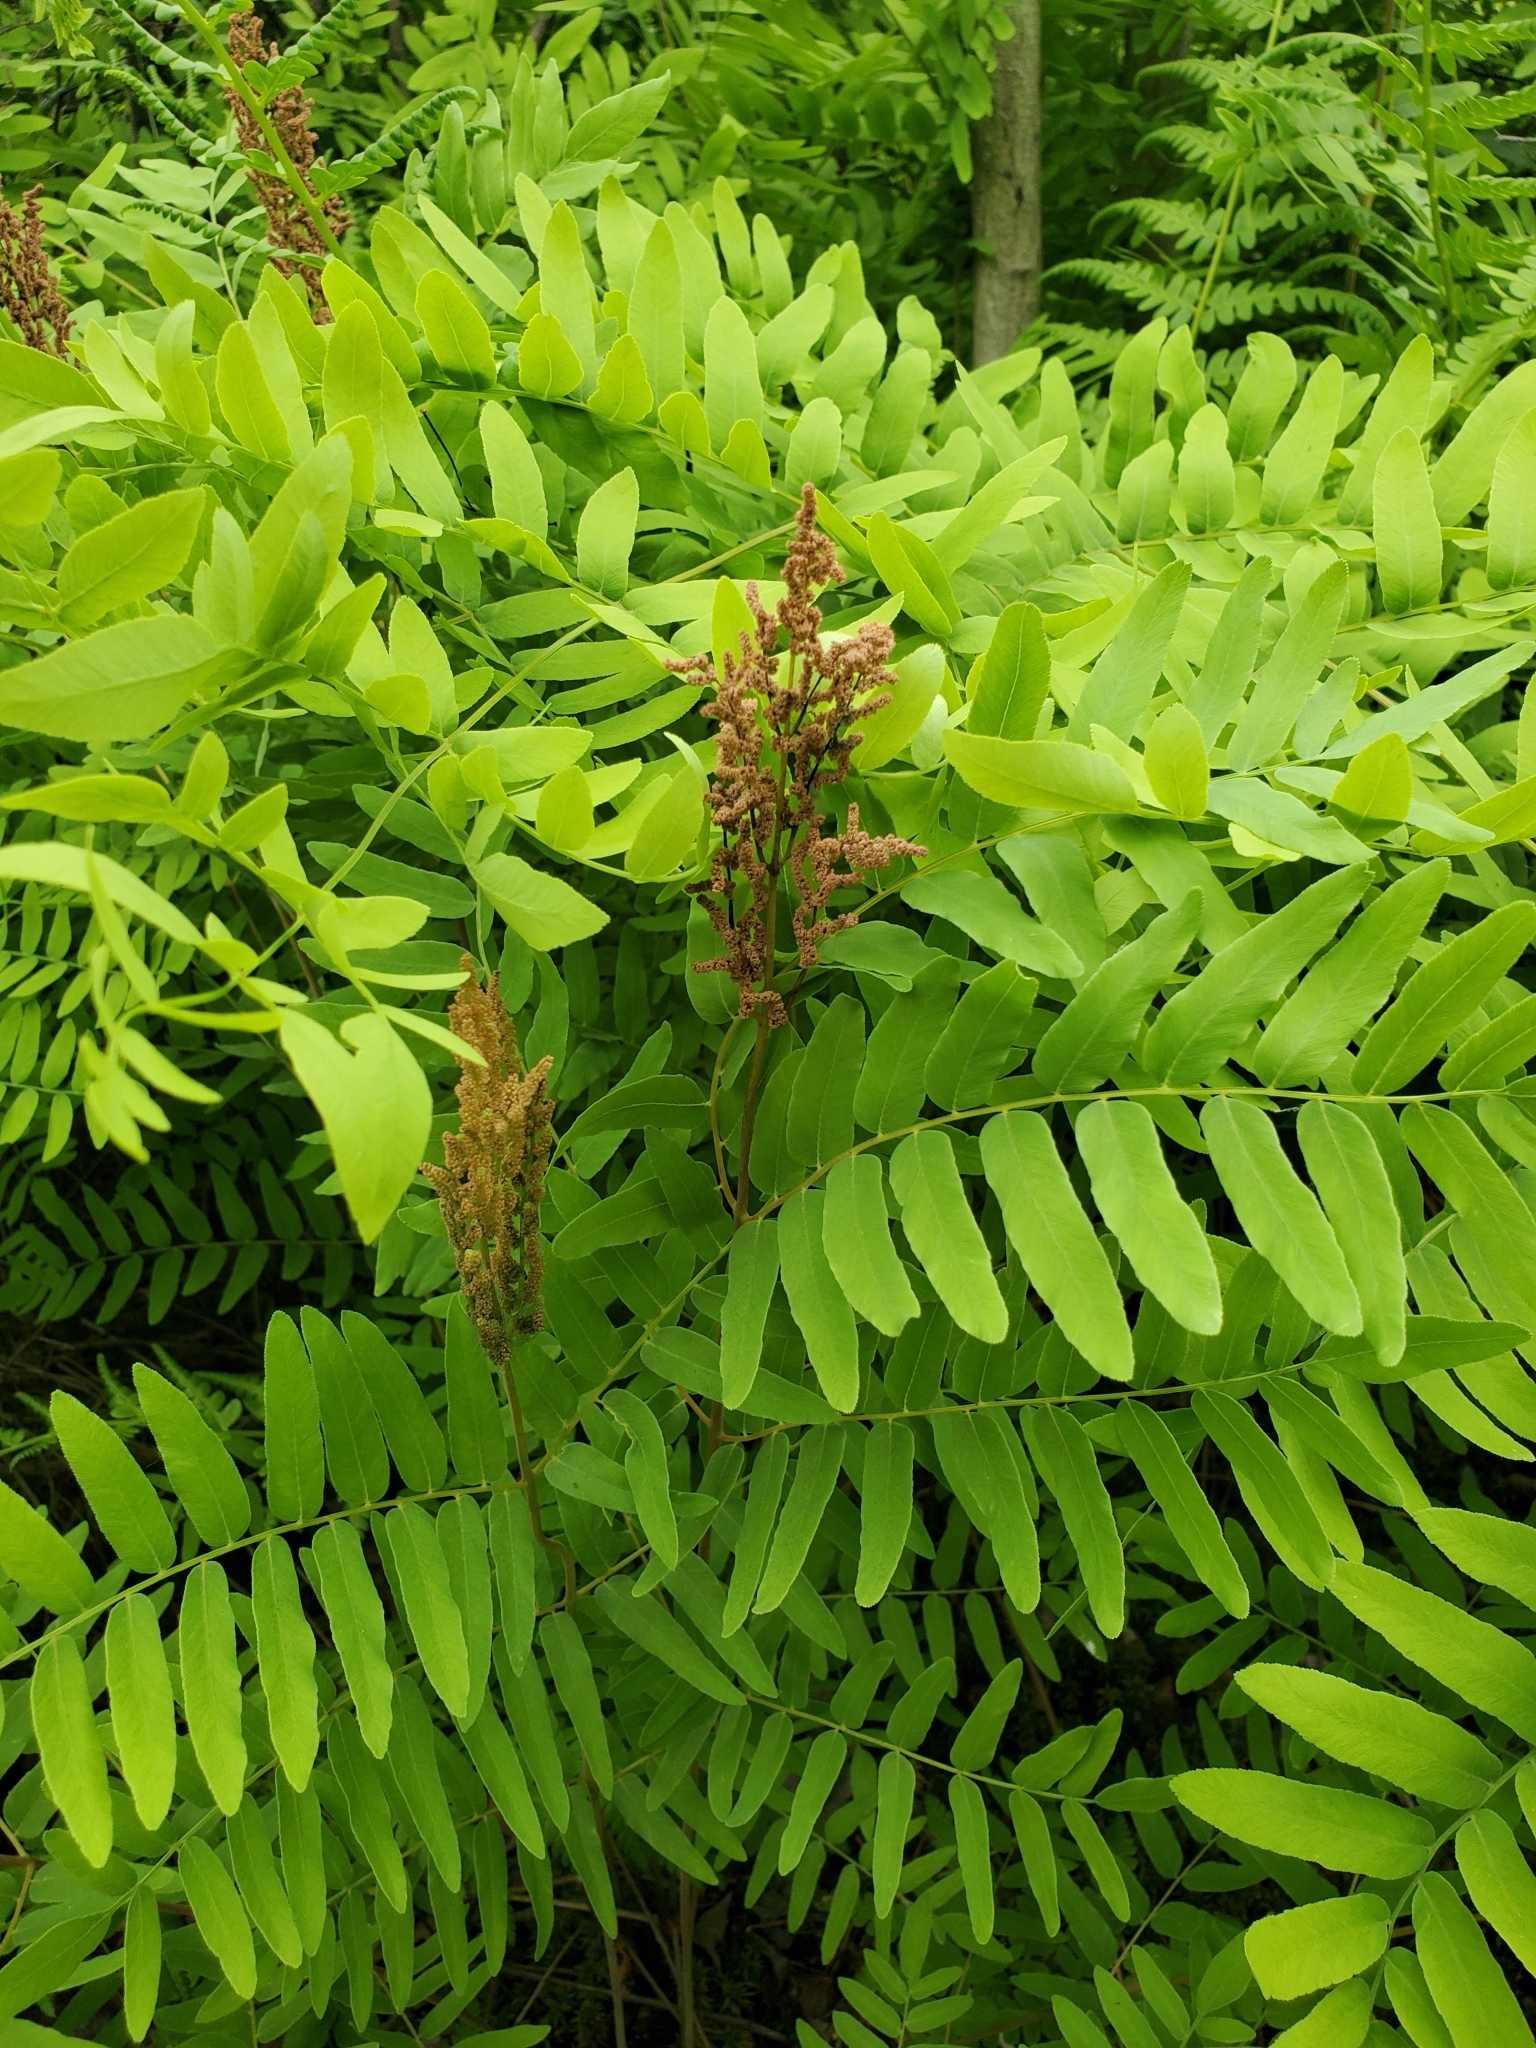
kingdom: Plantae
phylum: Tracheophyta
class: Polypodiopsida
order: Osmundales
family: Osmundaceae
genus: Osmunda
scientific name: Osmunda spectabilis
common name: American royal fern
